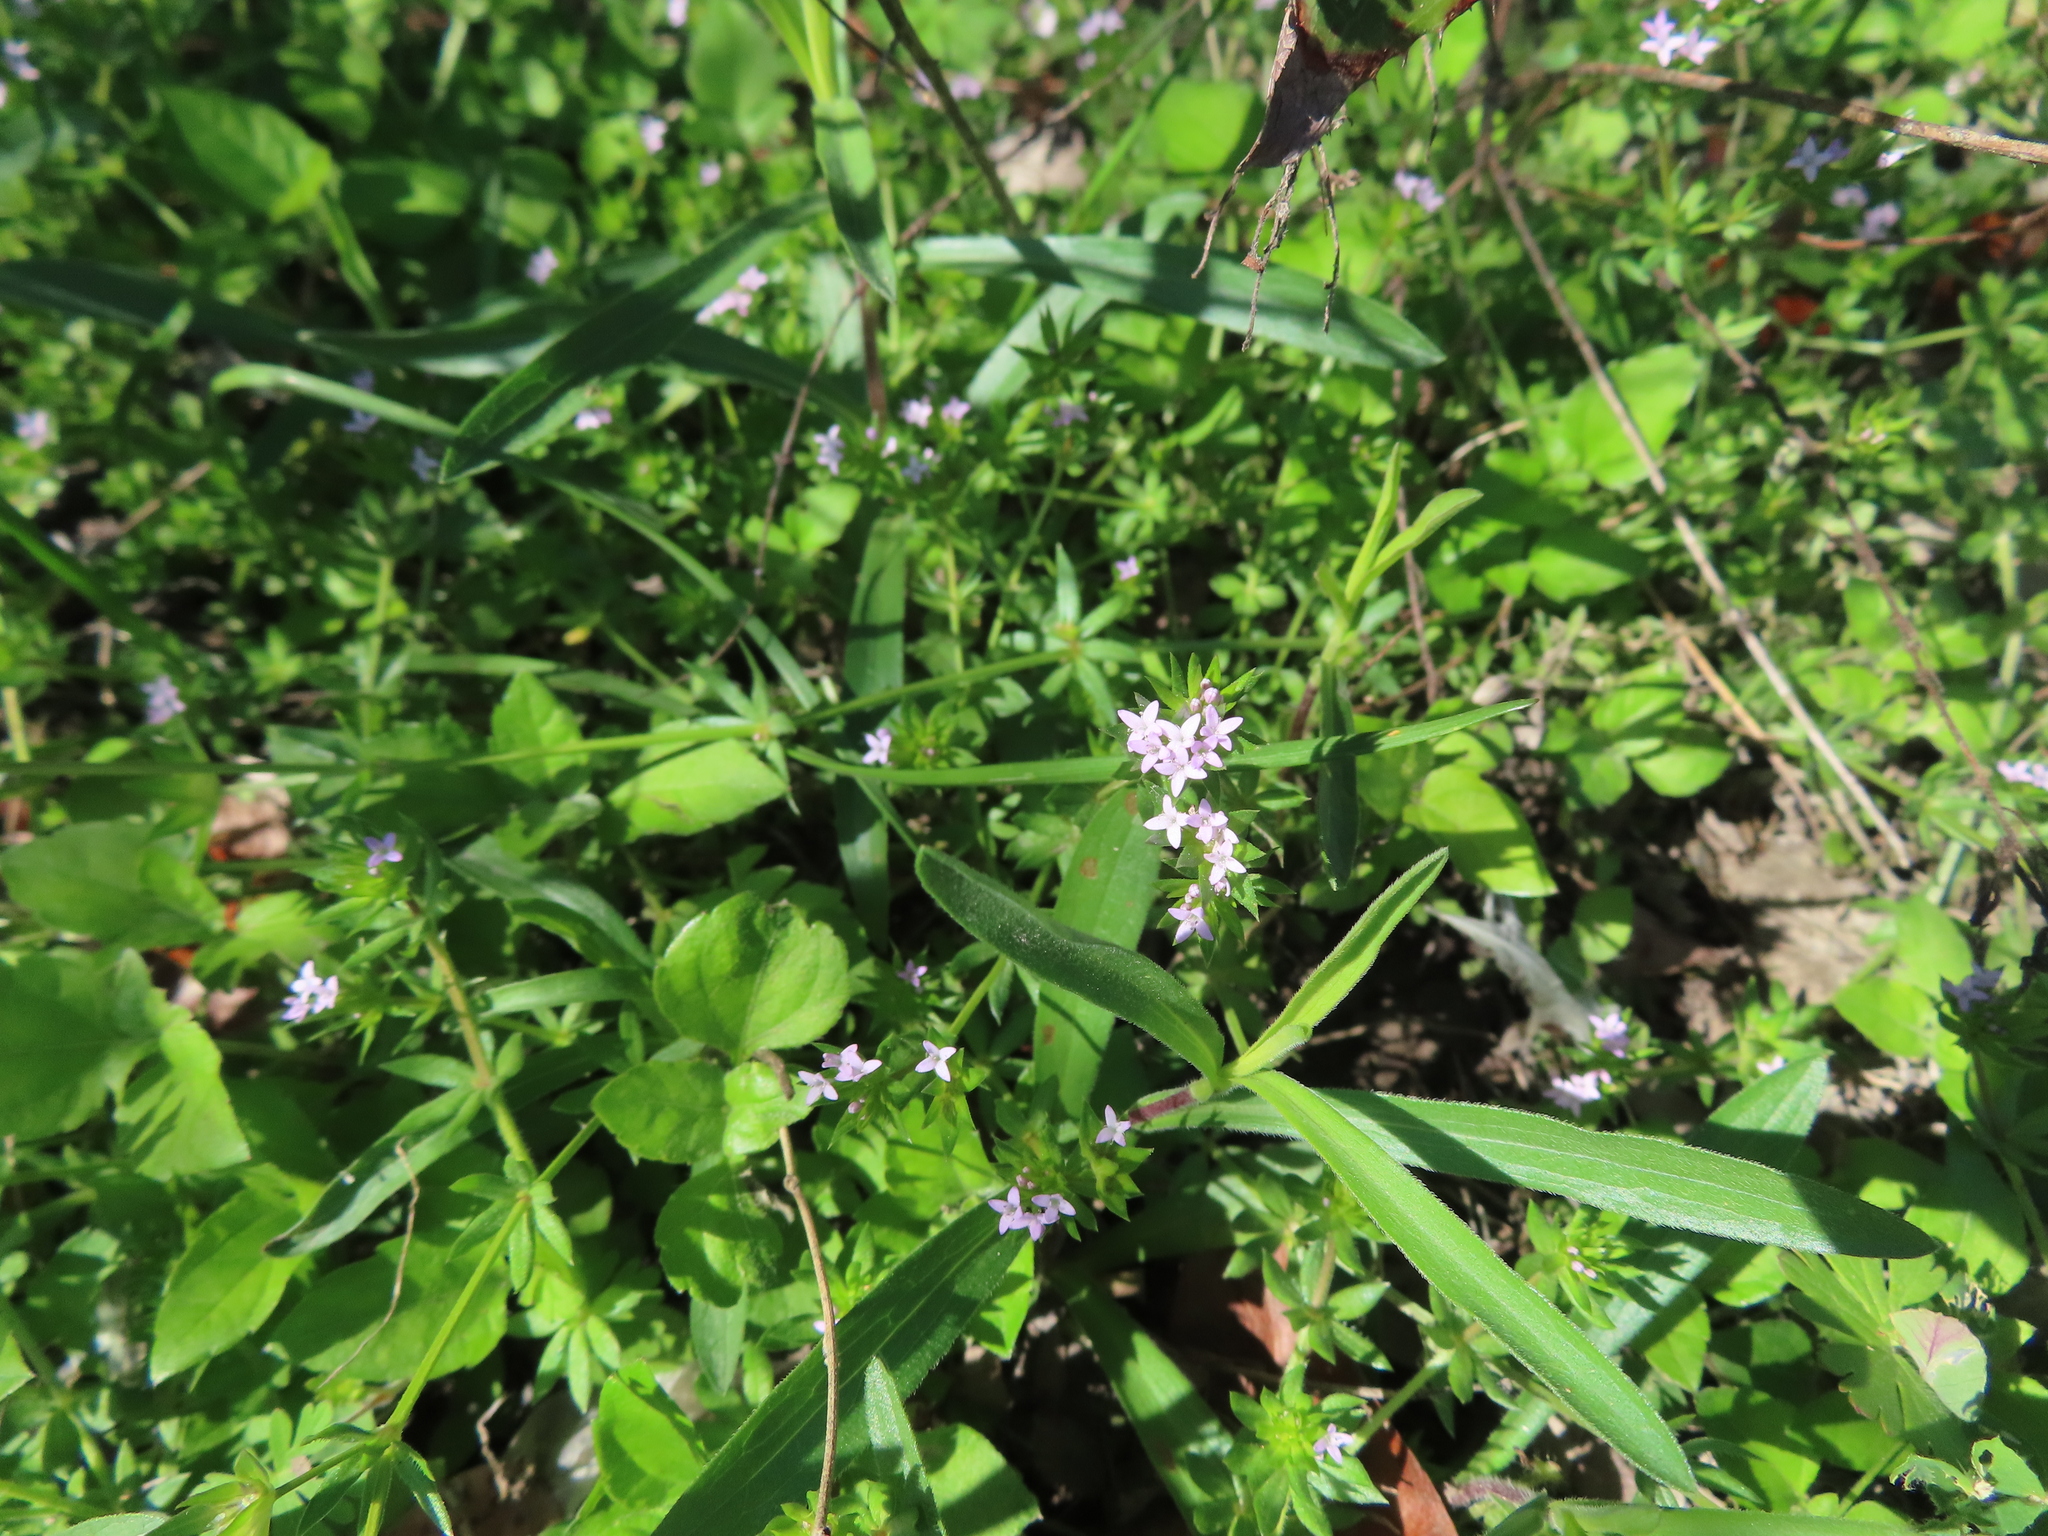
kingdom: Plantae
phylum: Tracheophyta
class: Magnoliopsida
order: Gentianales
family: Rubiaceae
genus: Sherardia
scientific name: Sherardia arvensis
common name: Field madder
